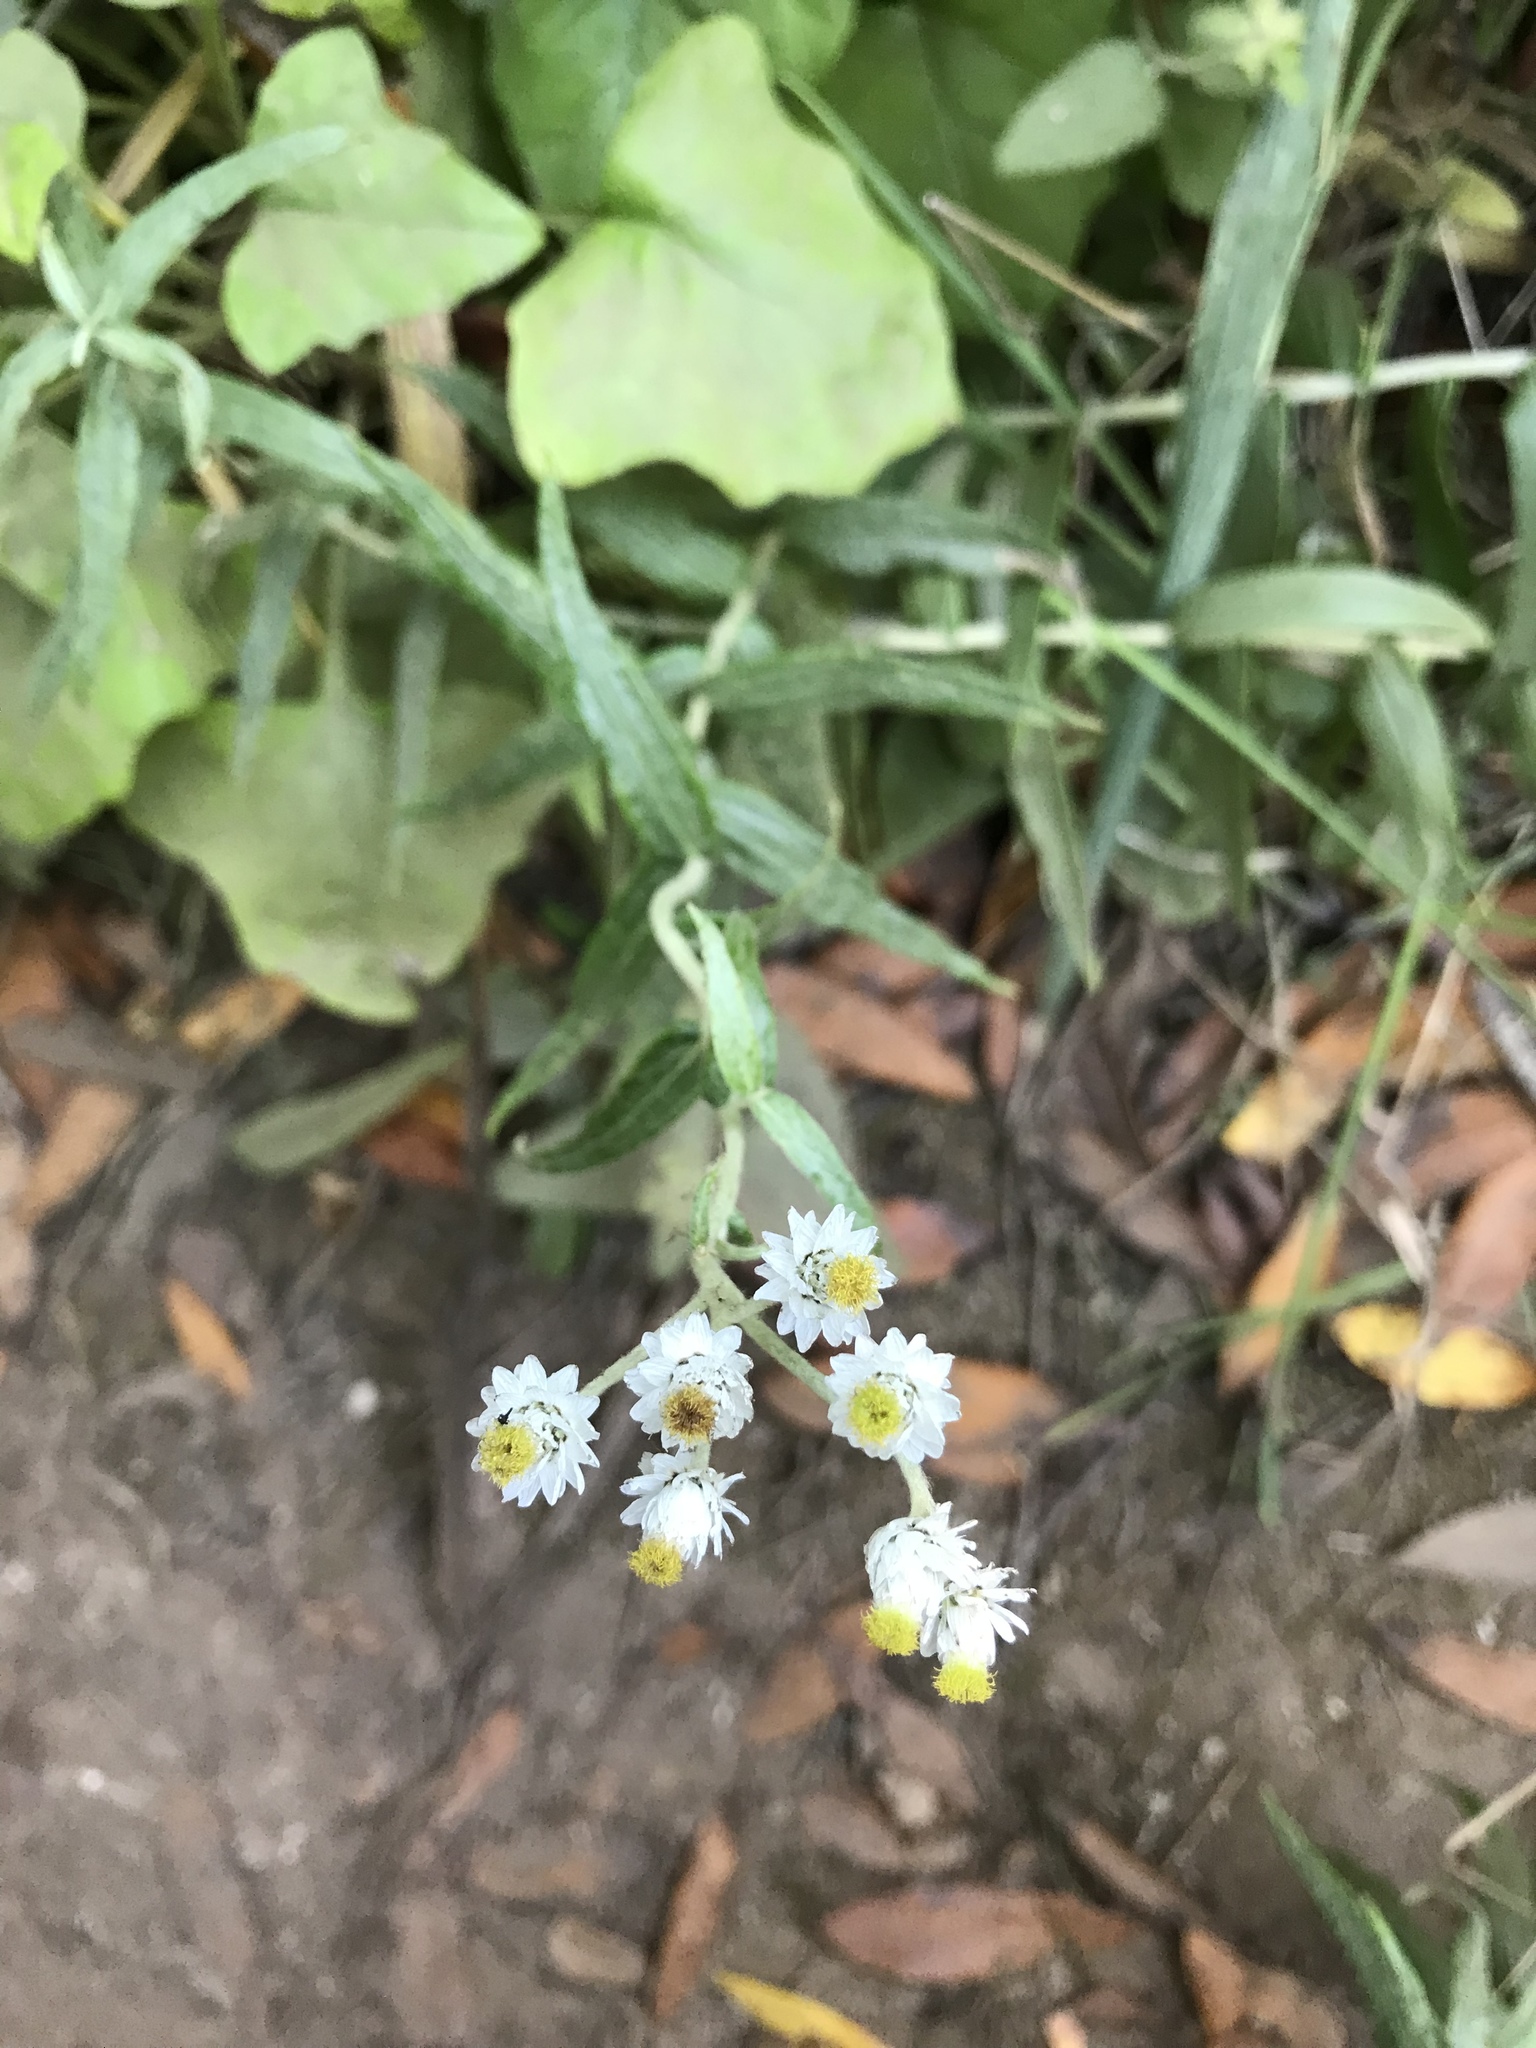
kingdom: Plantae
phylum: Tracheophyta
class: Magnoliopsida
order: Asterales
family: Asteraceae
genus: Anaphalis
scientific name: Anaphalis margaritacea
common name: Pearly everlasting
